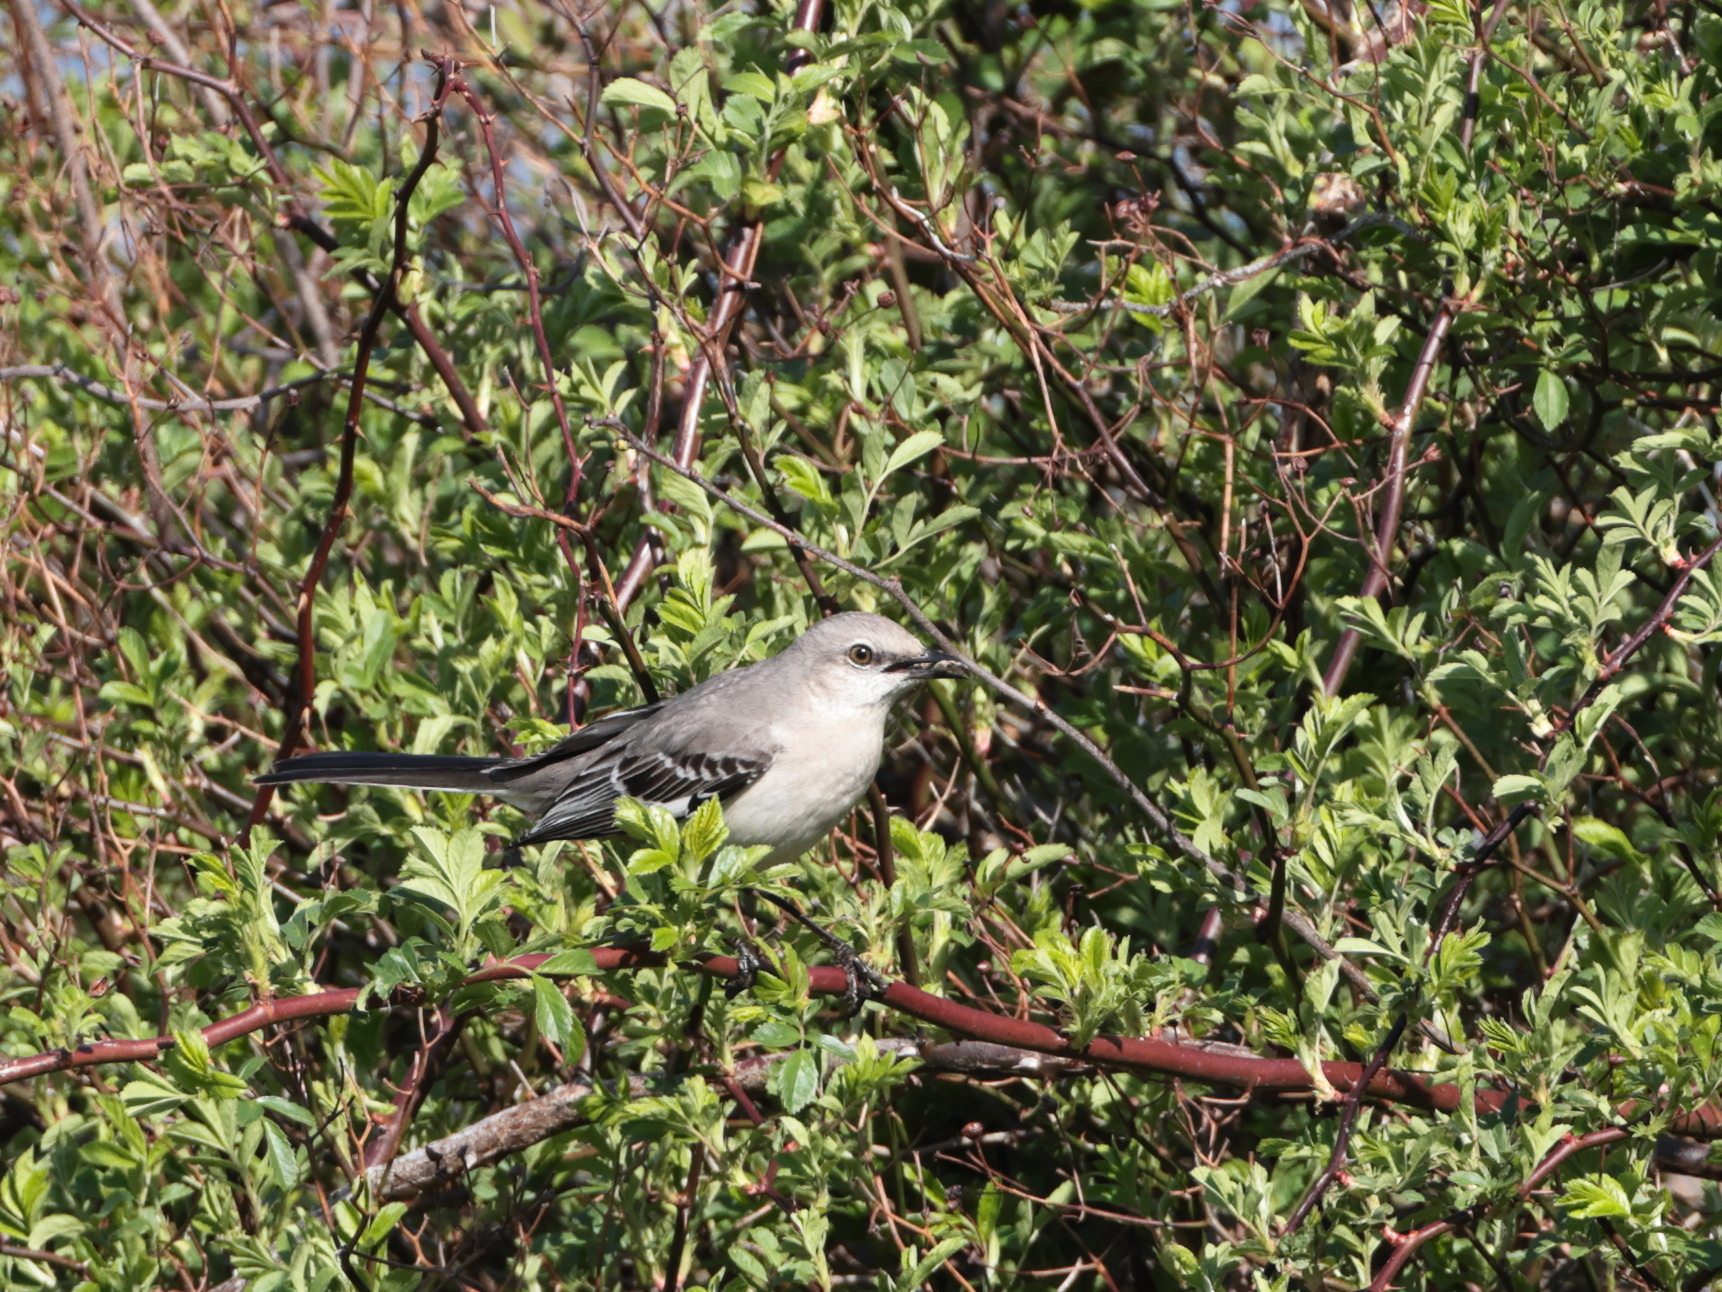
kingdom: Animalia
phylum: Chordata
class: Aves
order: Passeriformes
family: Mimidae
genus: Mimus
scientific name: Mimus polyglottos
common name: Northern mockingbird
